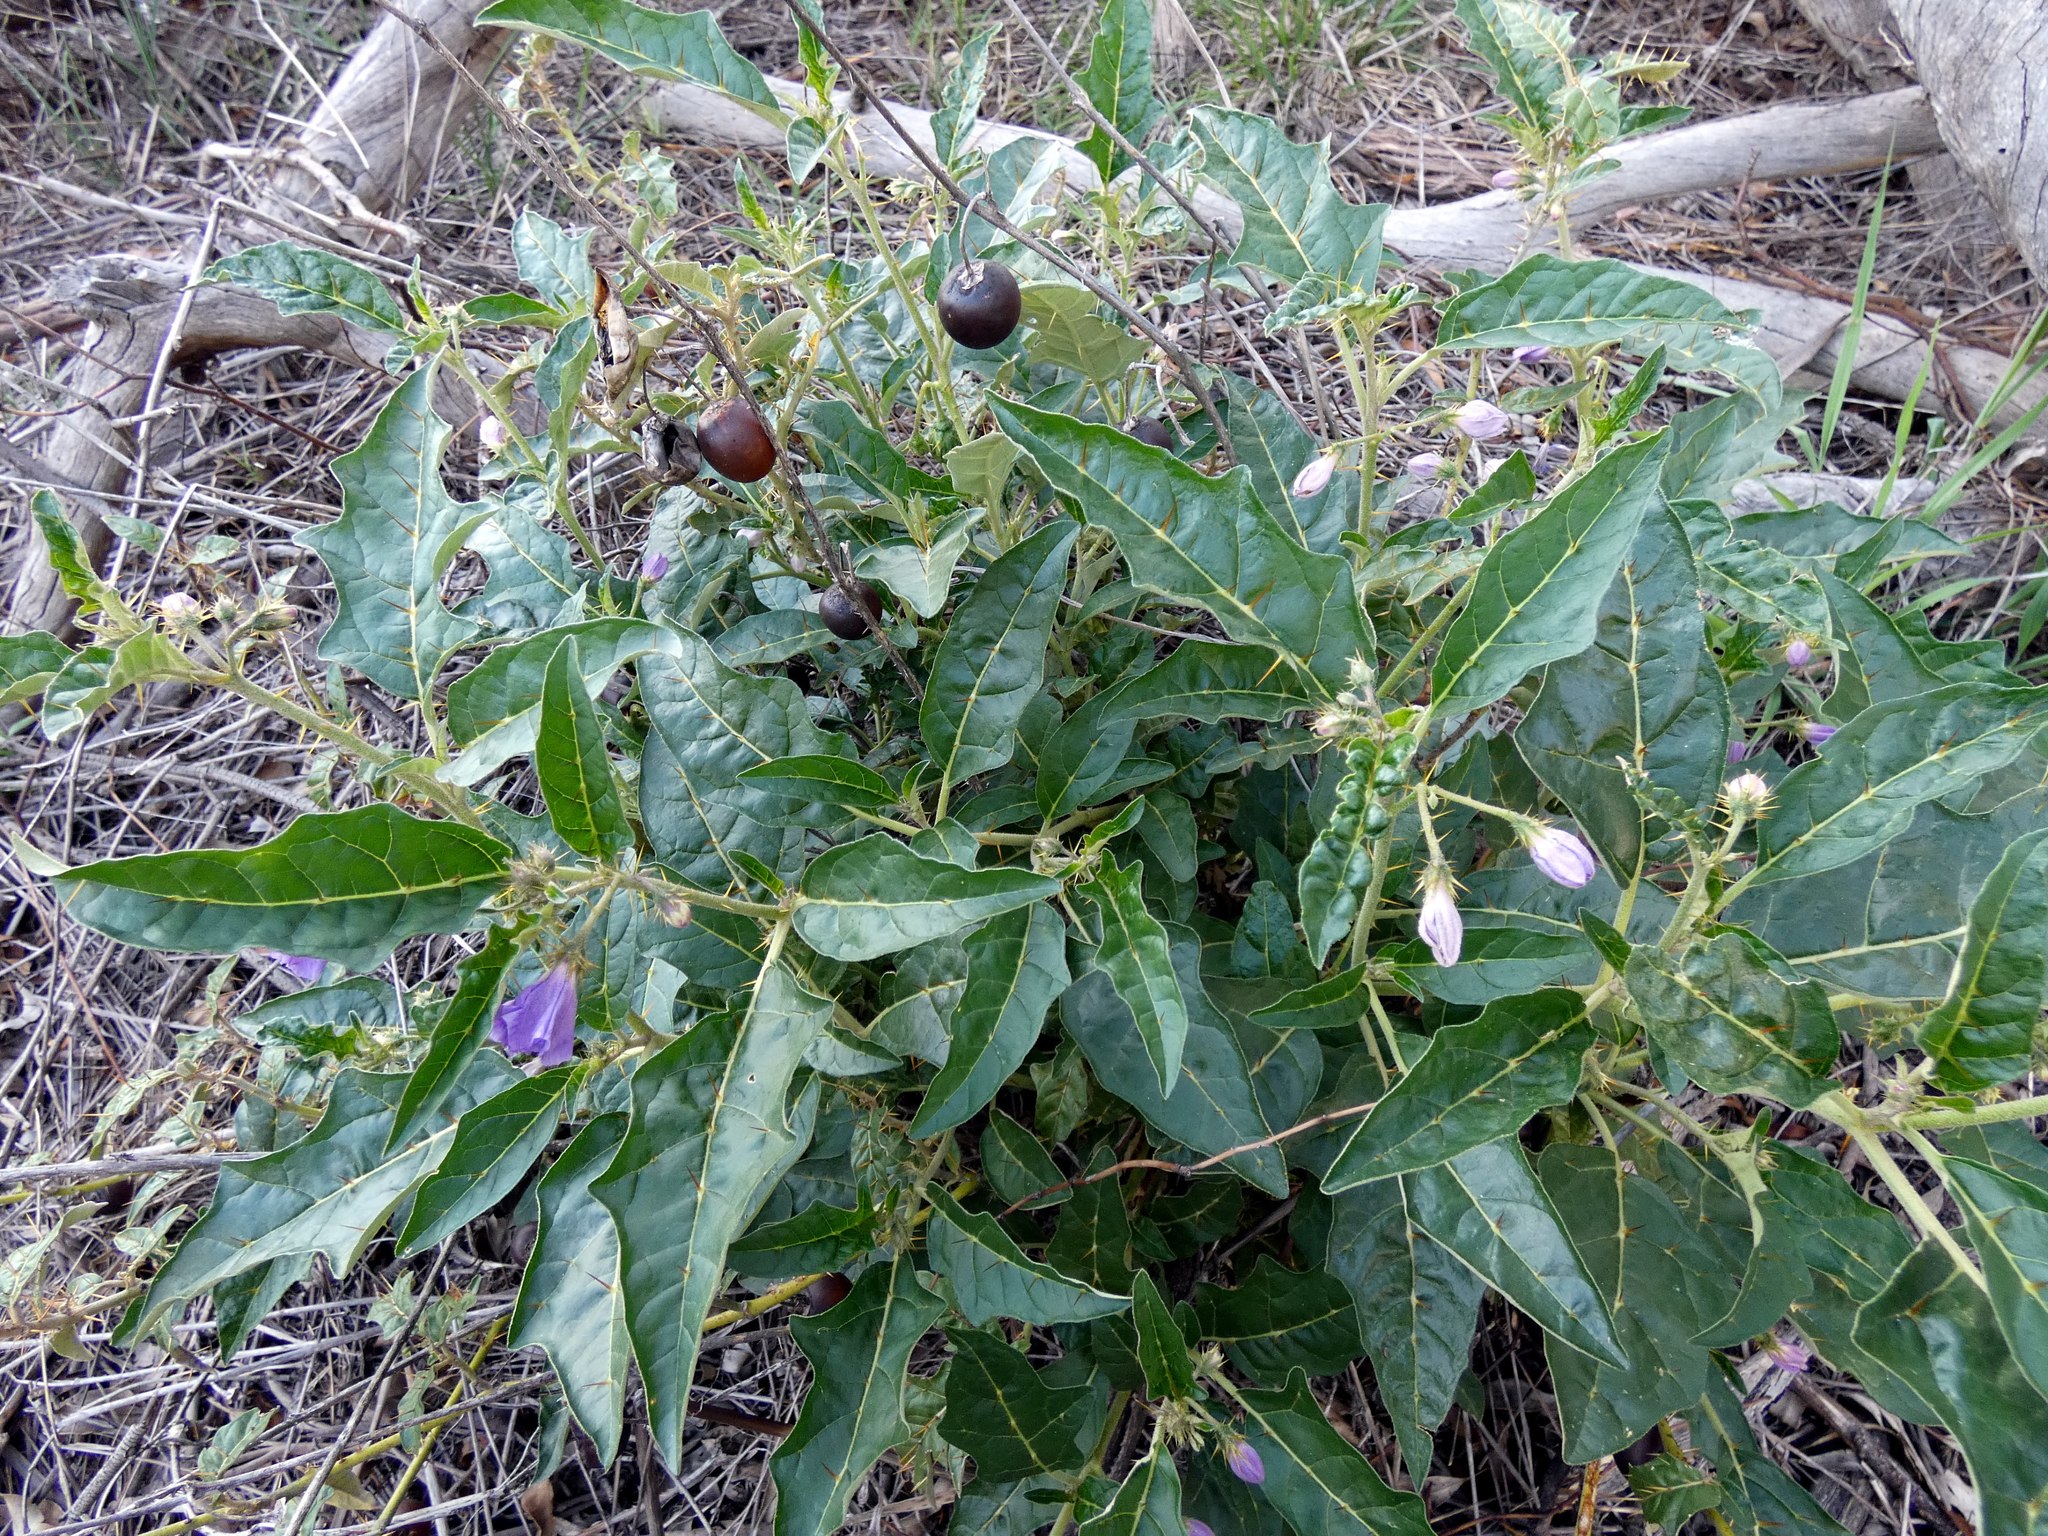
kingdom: Plantae
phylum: Tracheophyta
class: Magnoliopsida
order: Solanales
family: Solanaceae
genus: Solanum
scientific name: Solanum cinereum
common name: Narrawa-bur
